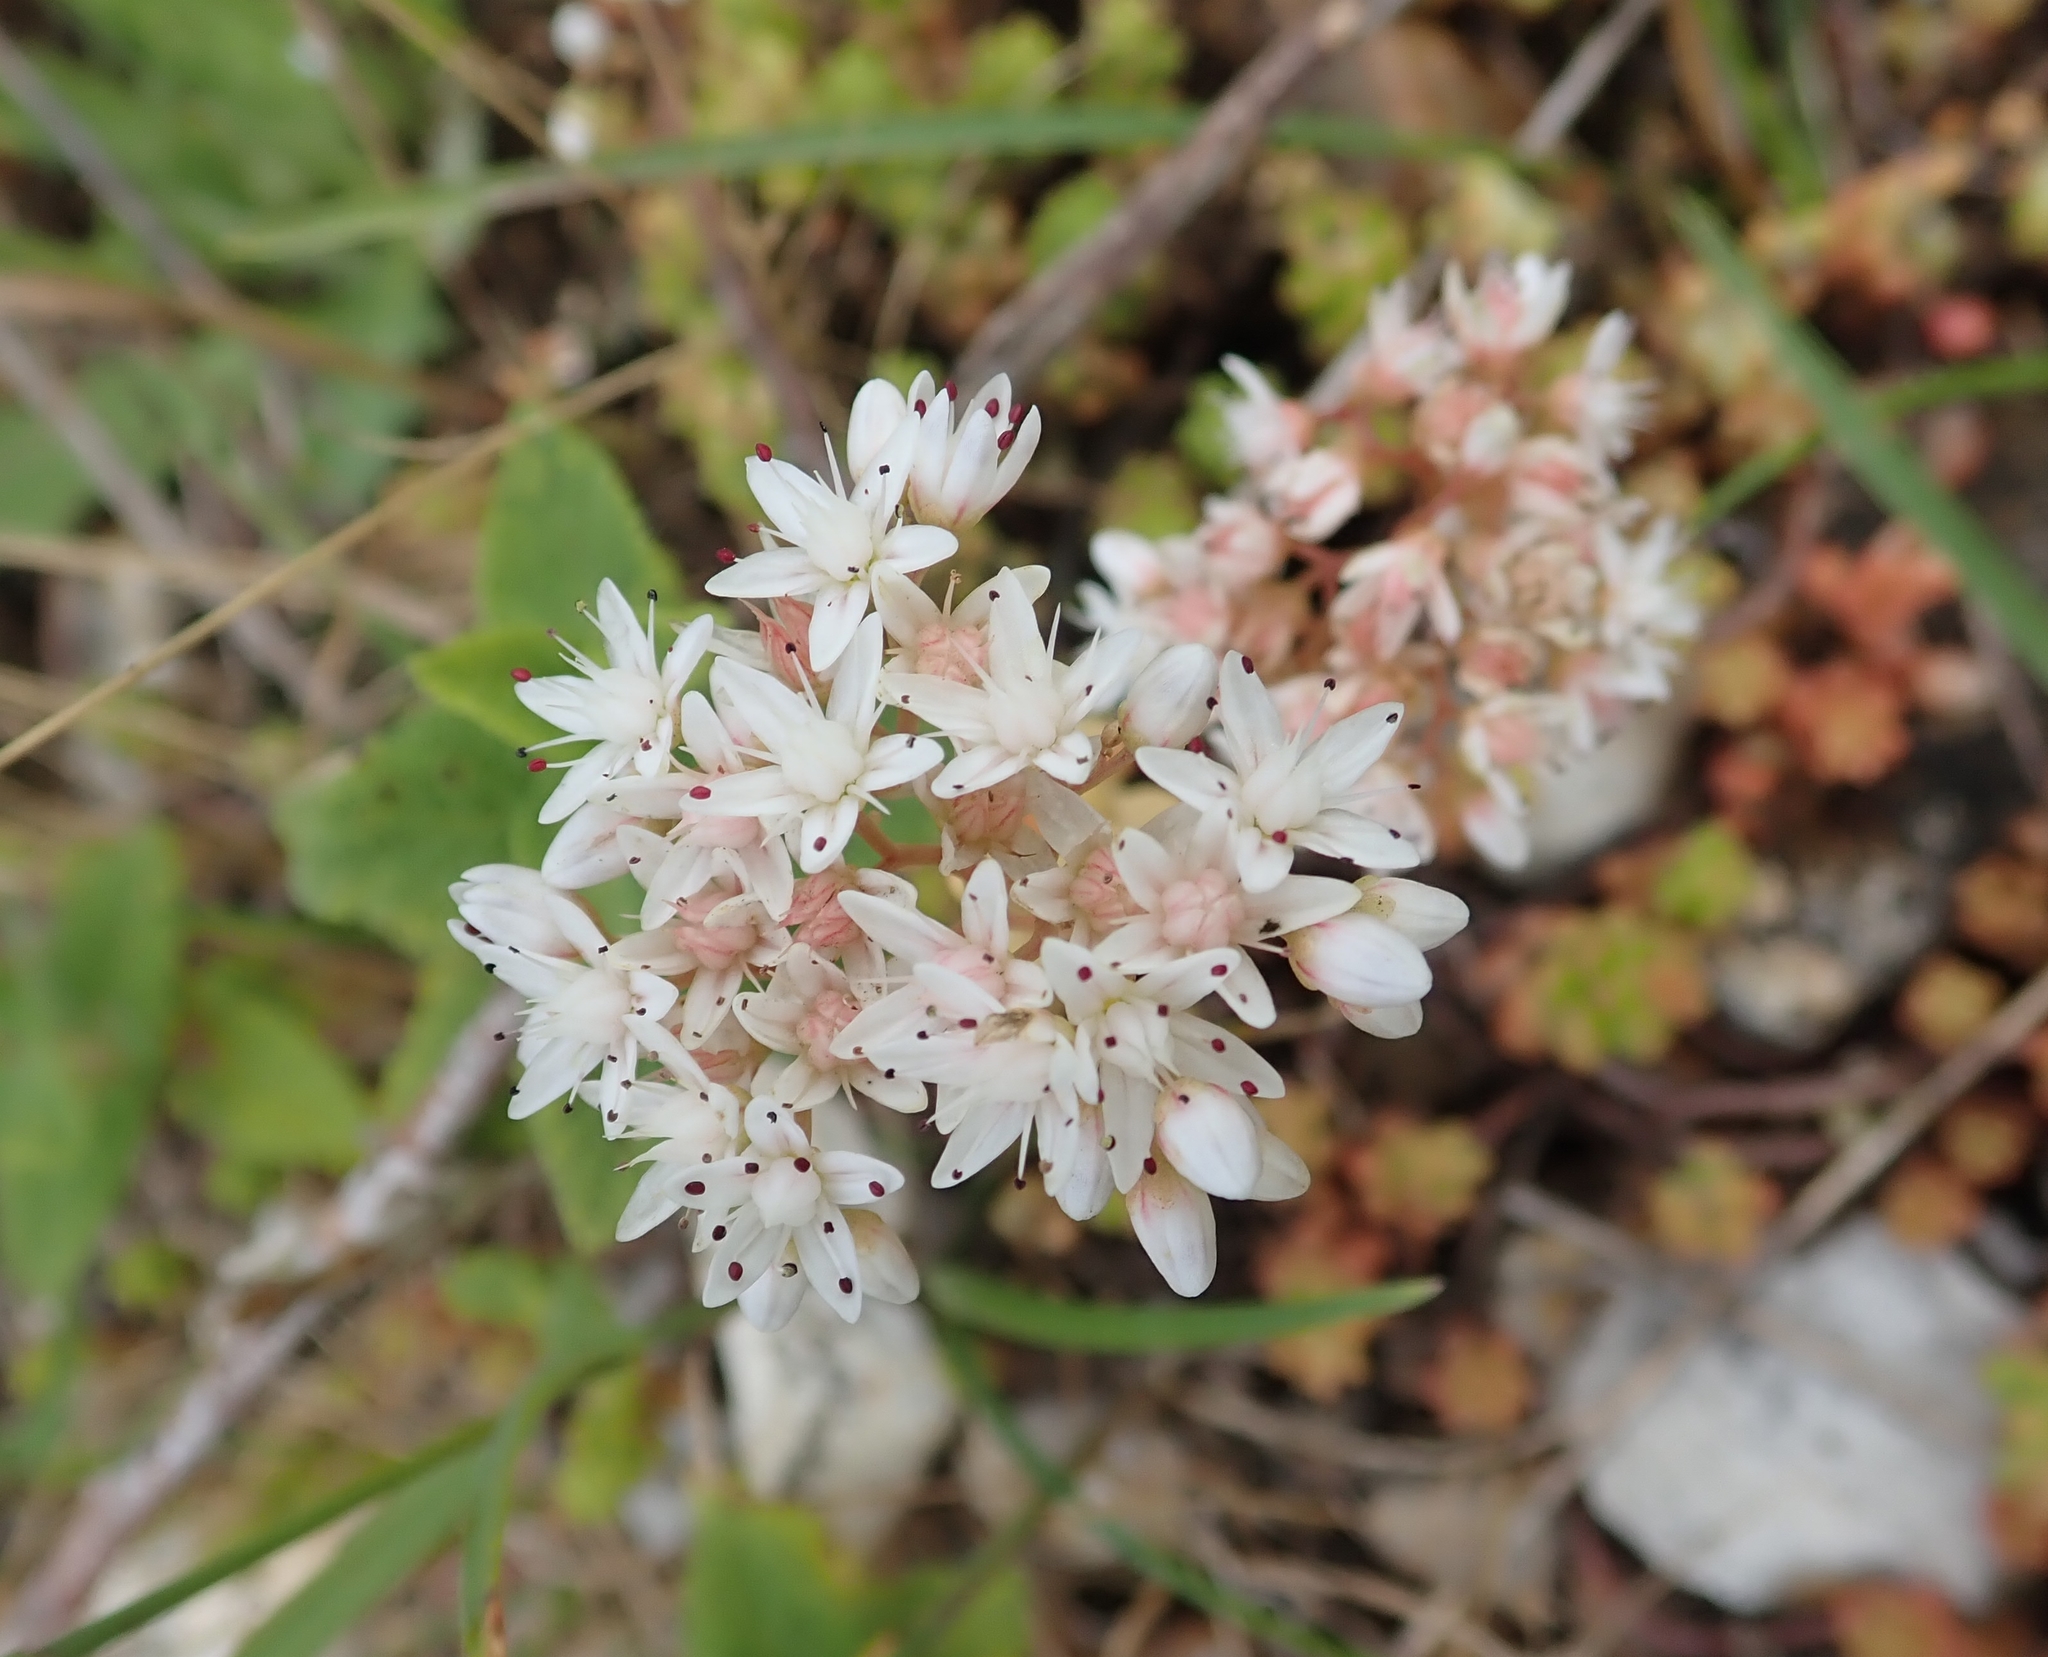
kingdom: Plantae
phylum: Tracheophyta
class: Magnoliopsida
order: Saxifragales
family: Crassulaceae
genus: Sedum
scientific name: Sedum album
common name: White stonecrop
